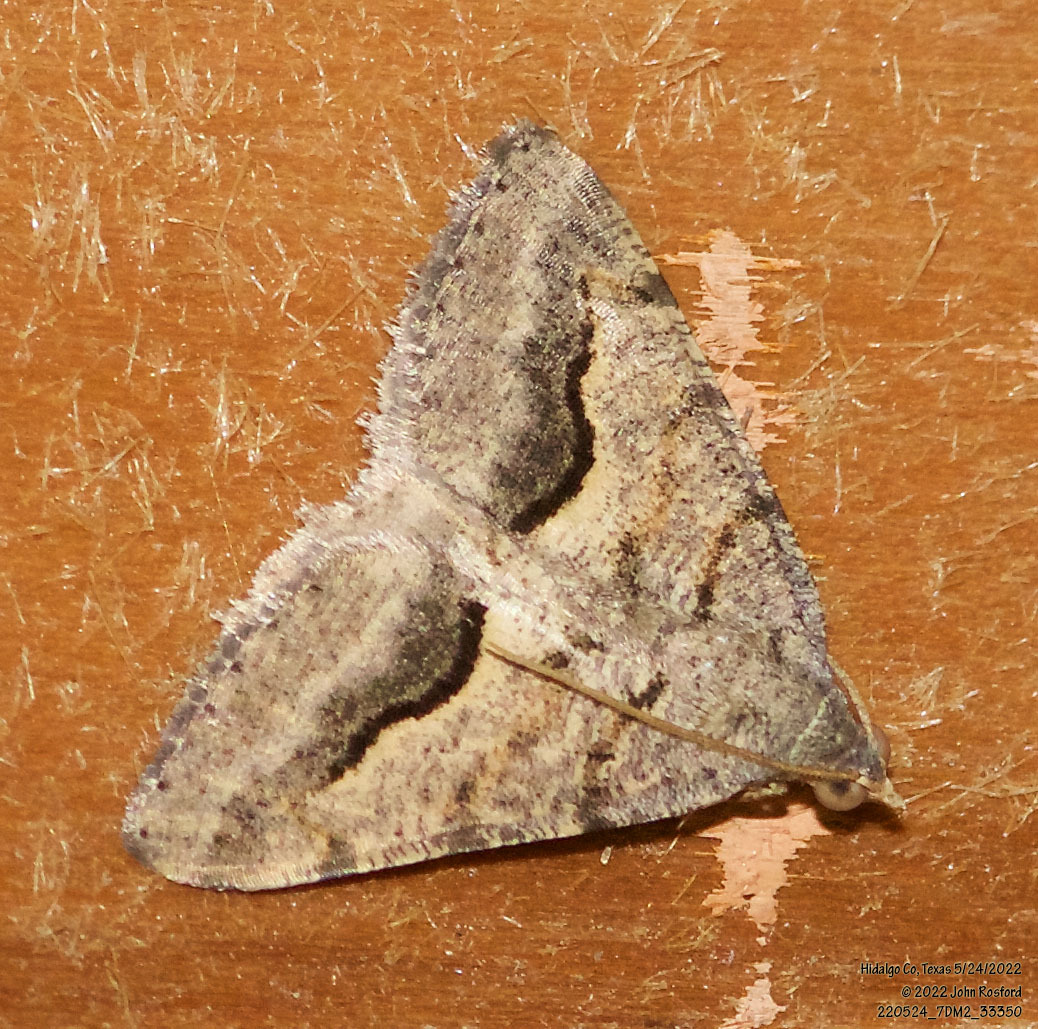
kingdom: Animalia
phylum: Arthropoda
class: Insecta
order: Lepidoptera
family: Geometridae
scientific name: Geometridae
